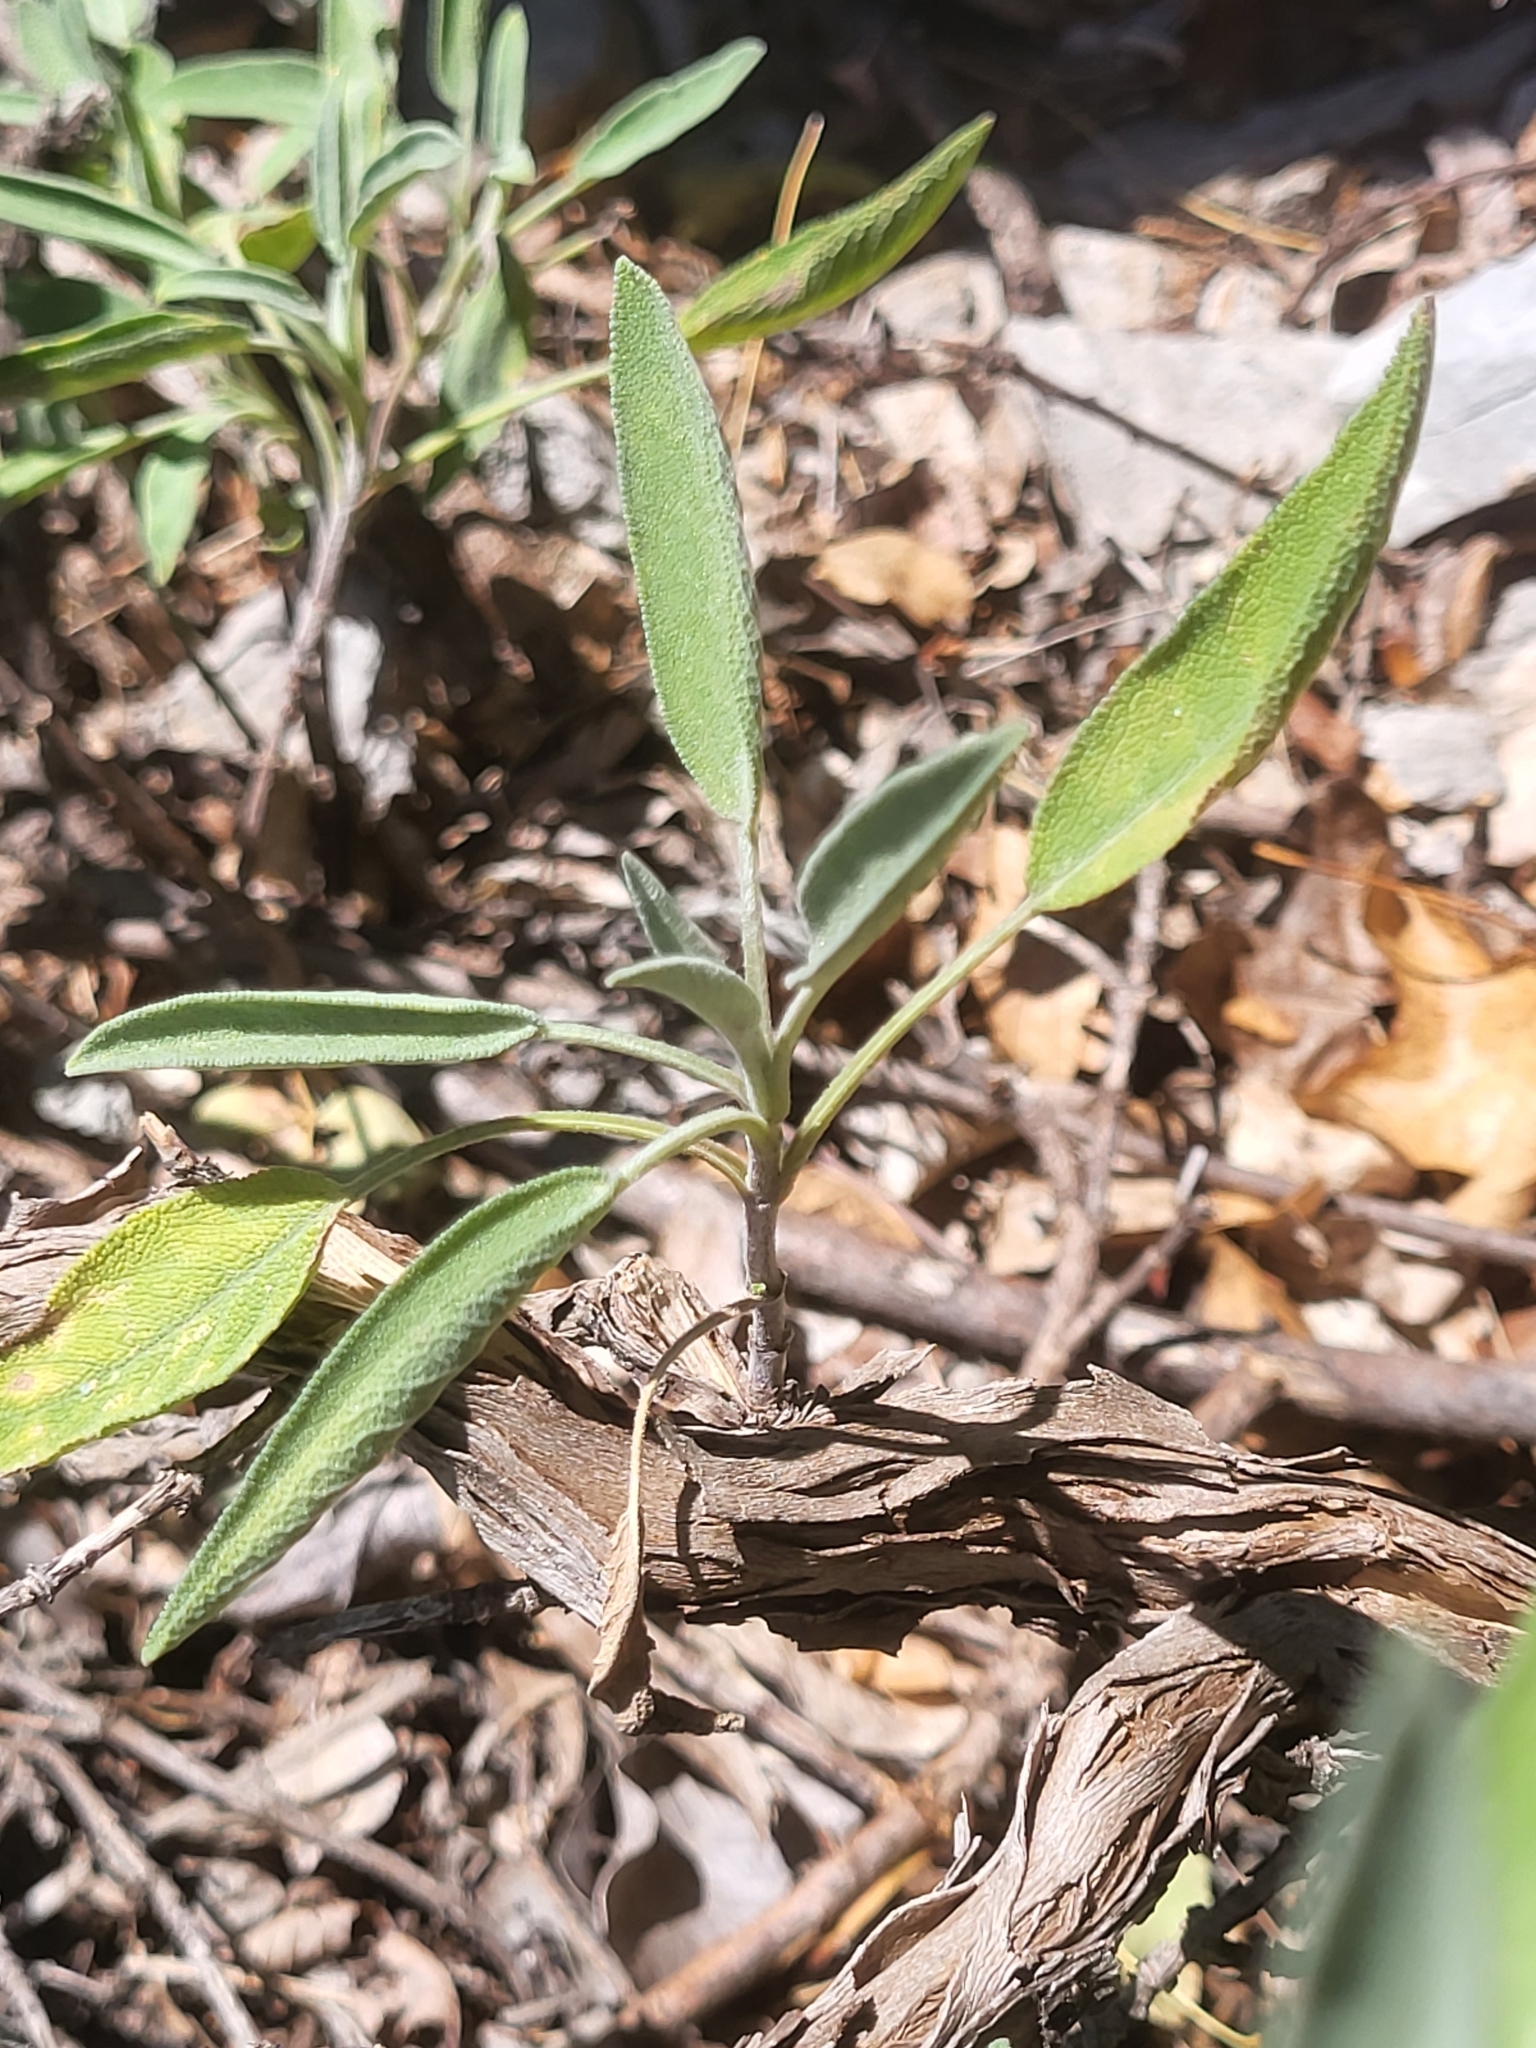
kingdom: Plantae
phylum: Tracheophyta
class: Magnoliopsida
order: Lamiales
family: Lamiaceae
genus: Salvia
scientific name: Salvia officinalis
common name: Sage
